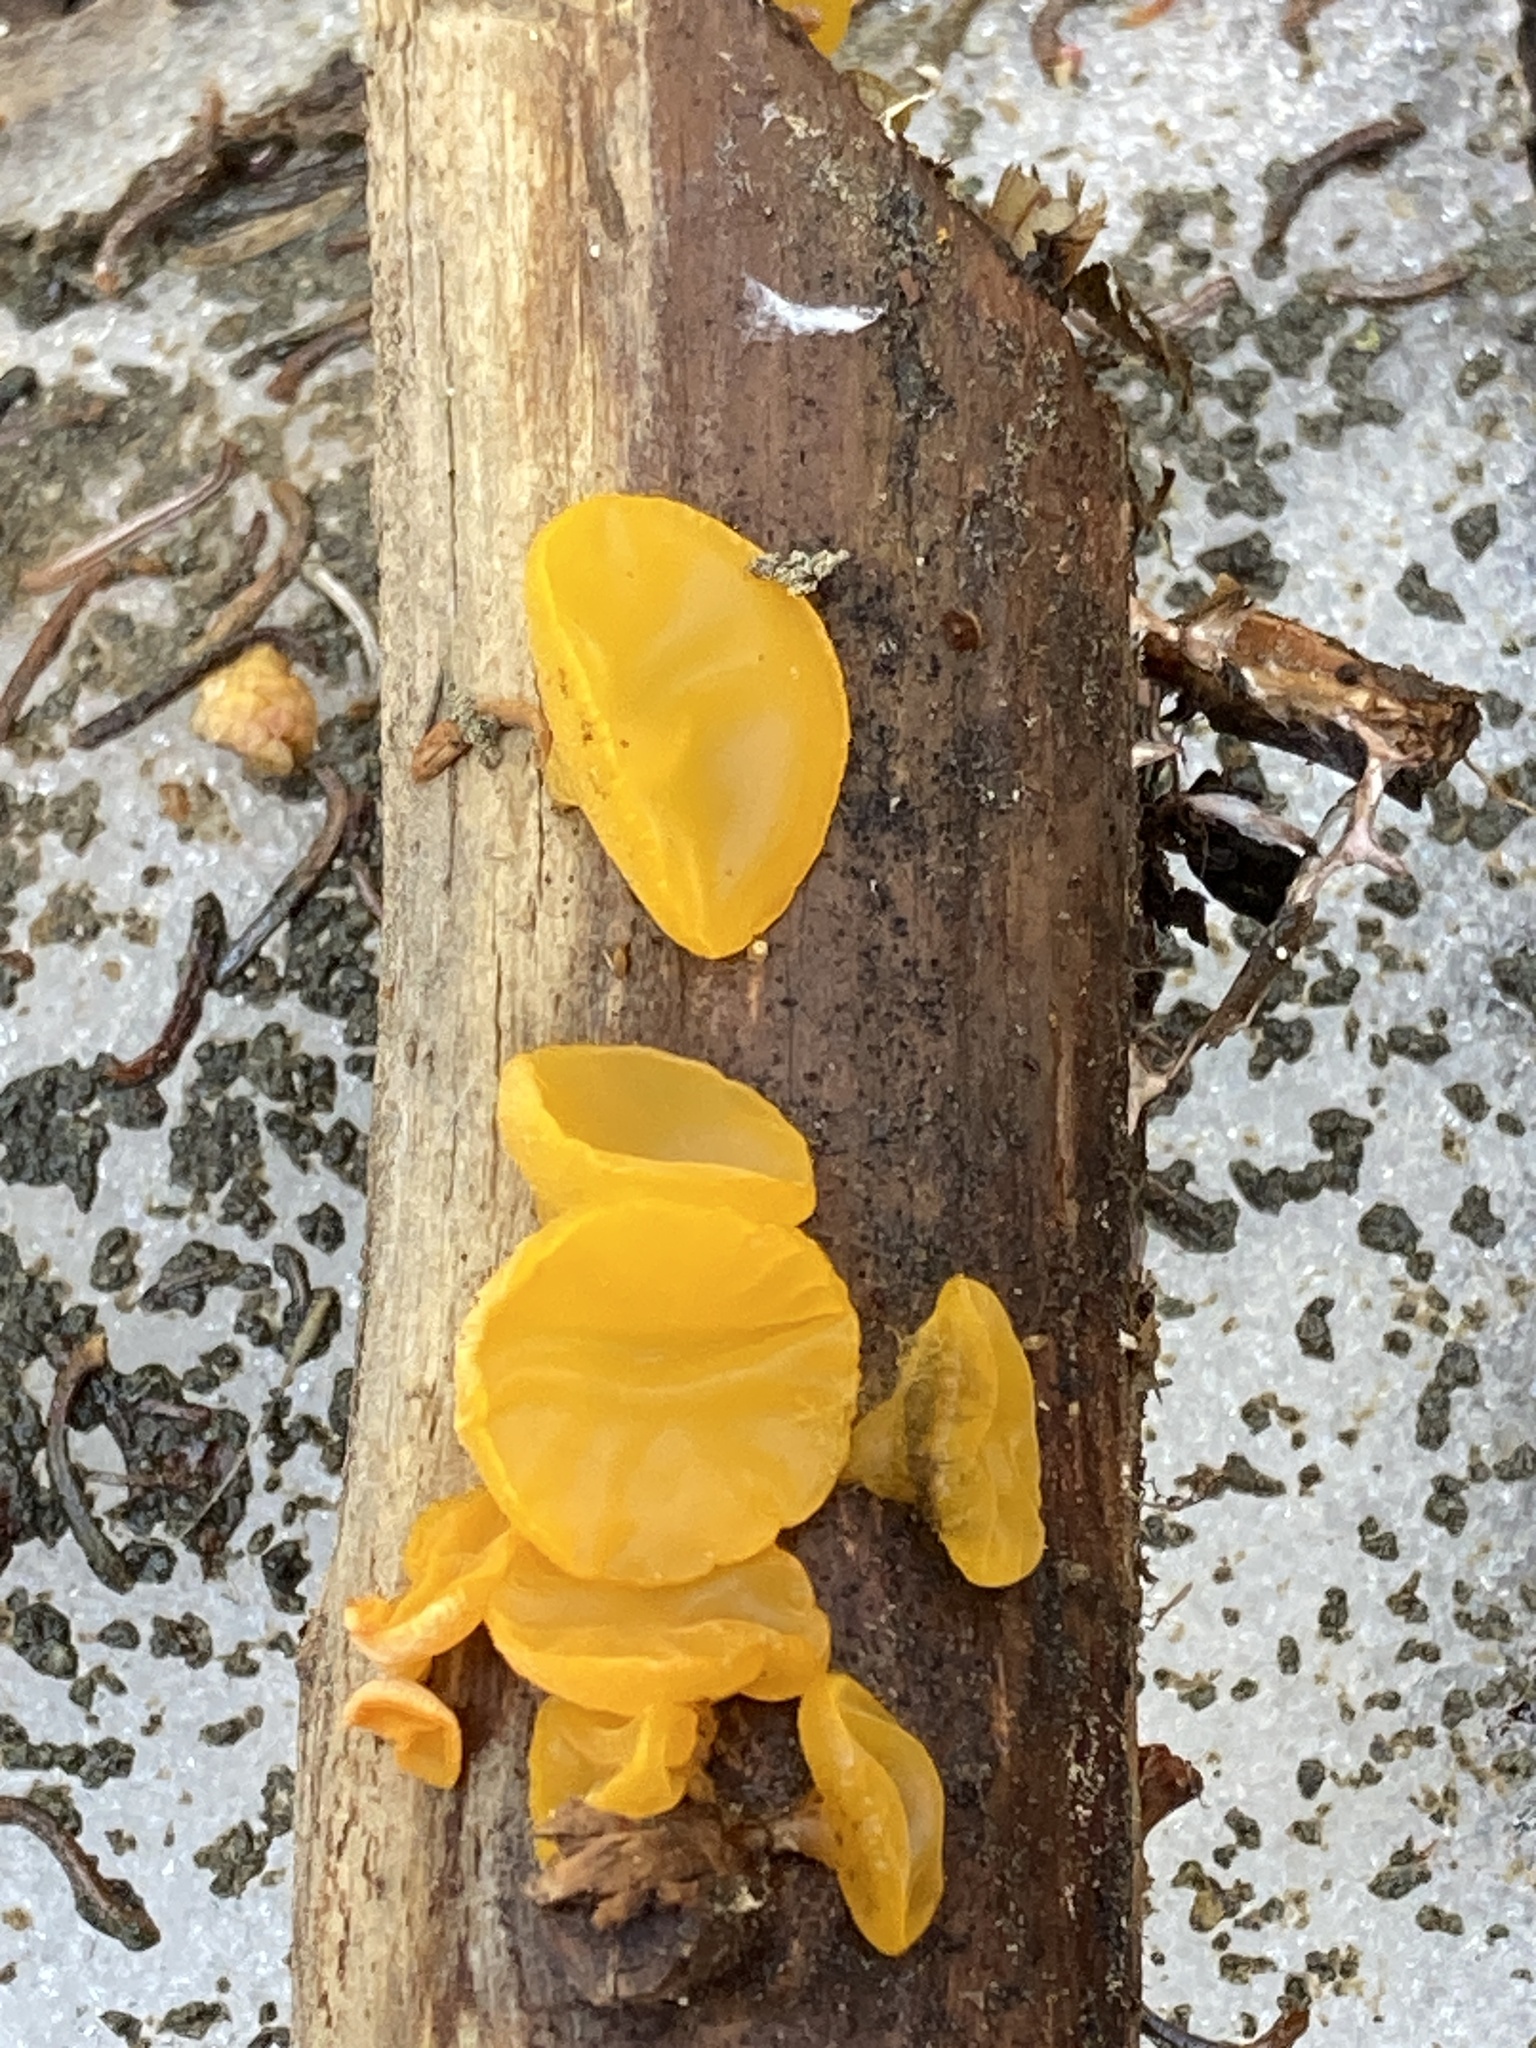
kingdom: Fungi
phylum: Basidiomycota
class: Dacrymycetes
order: Dacrymycetales
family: Dacrymycetaceae
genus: Guepiniopsis
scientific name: Guepiniopsis alpina
